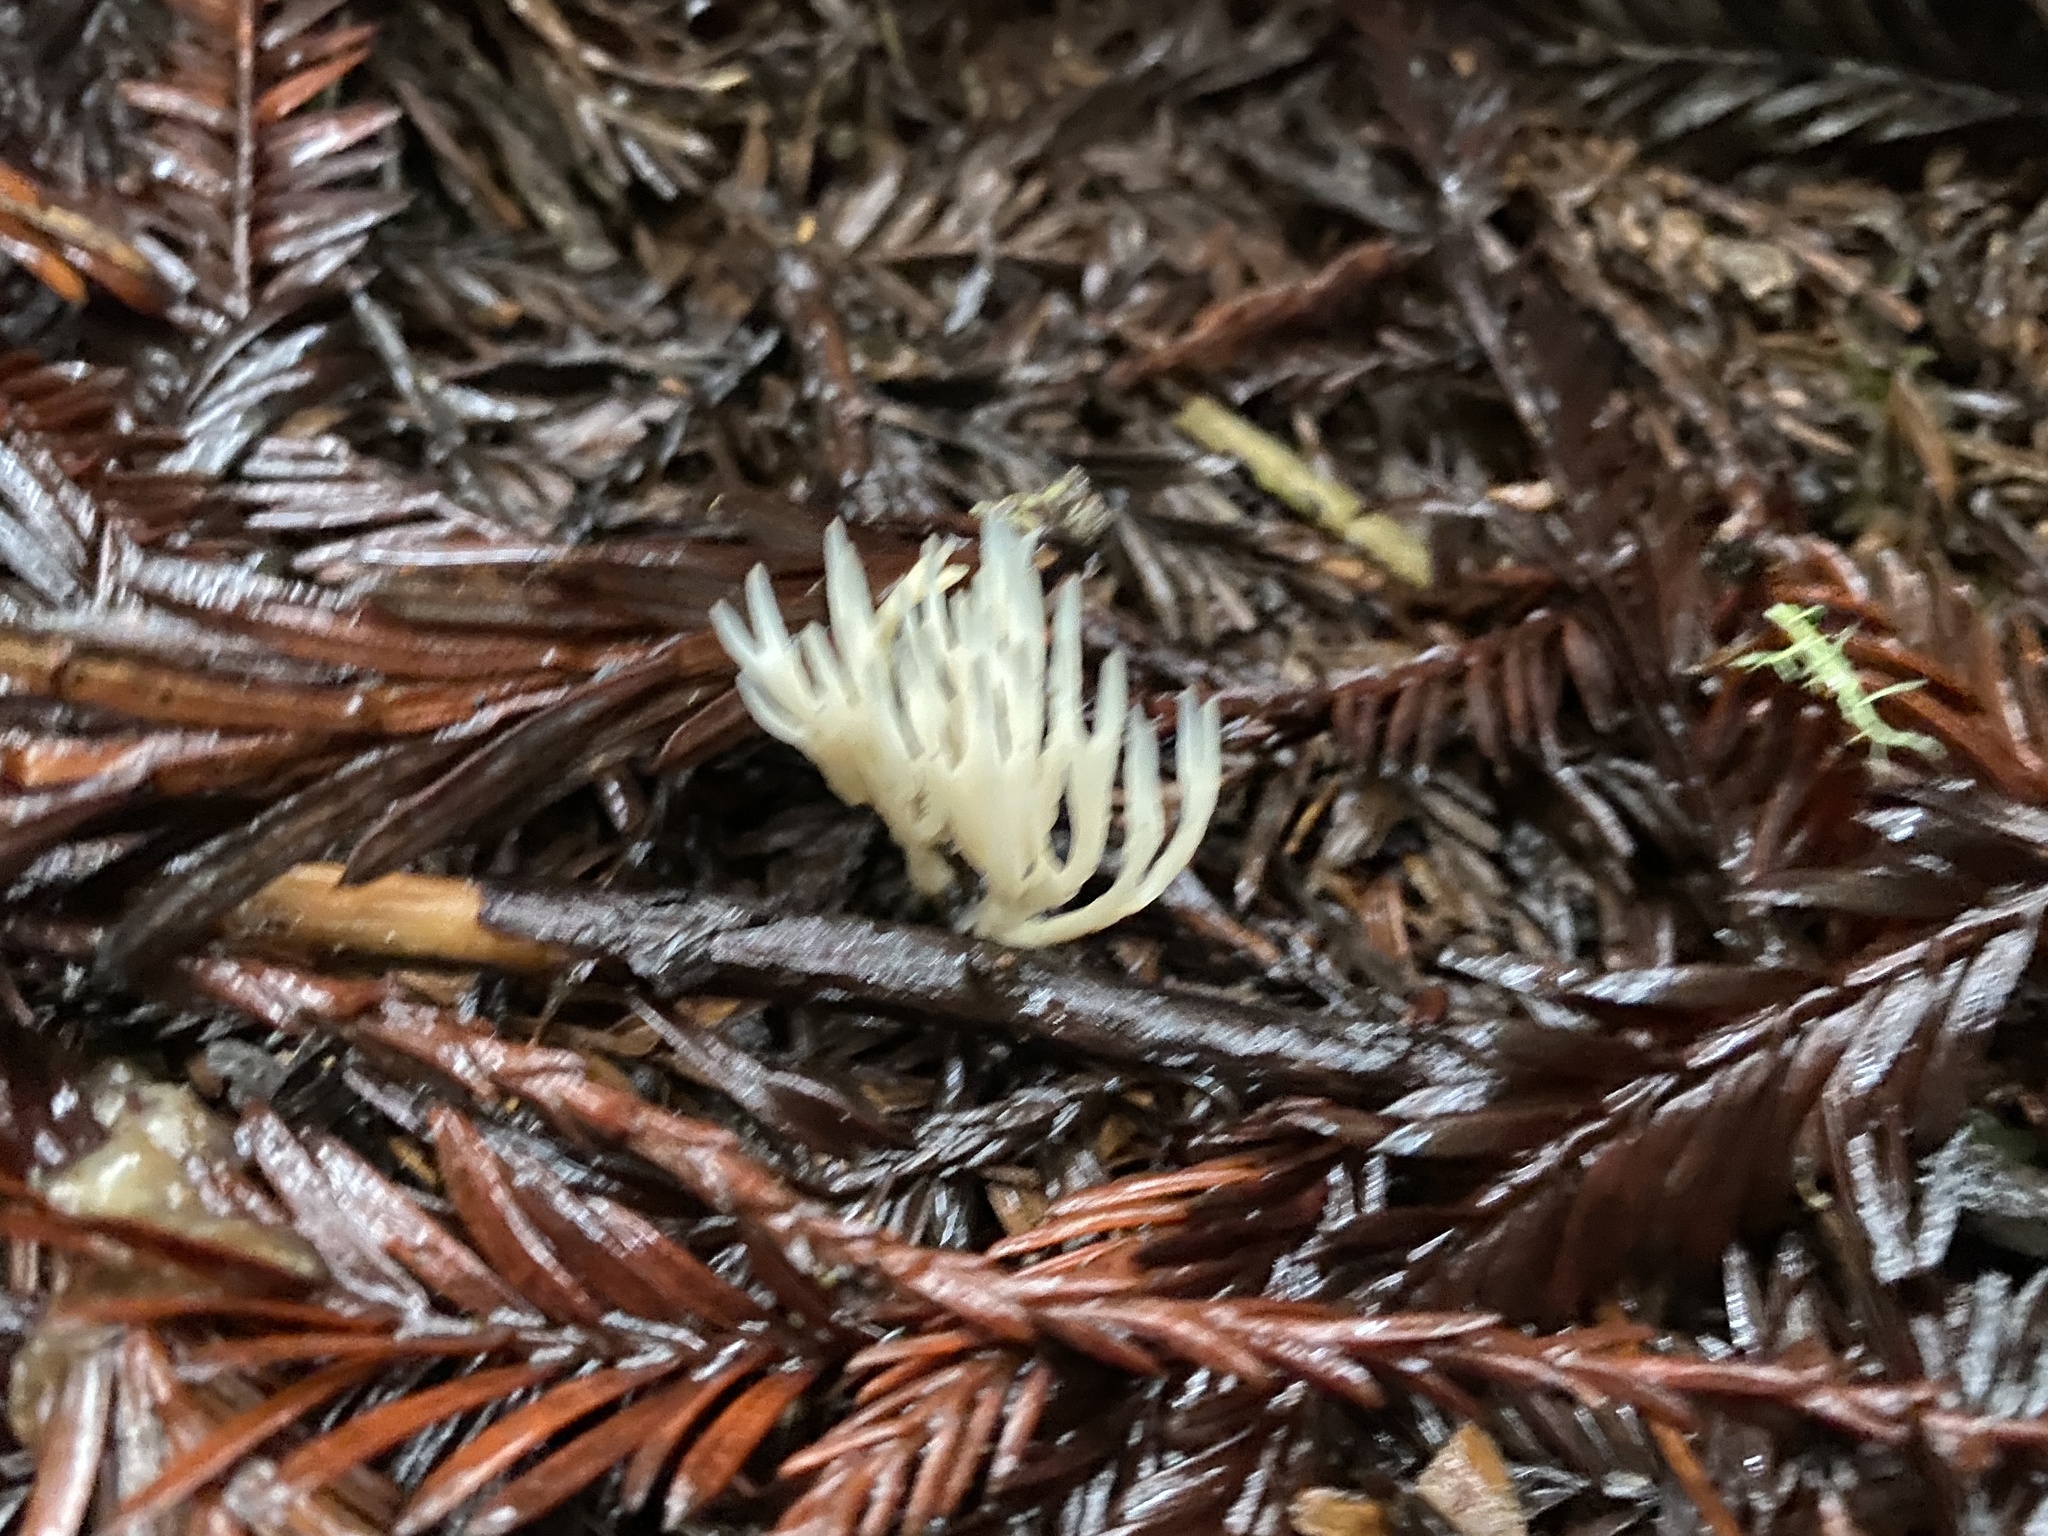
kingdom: Fungi
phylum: Basidiomycota
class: Agaricomycetes
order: Tremellodendropsidales
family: Tremellodendropsidaceae
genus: Tremellodendropsis
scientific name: Tremellodendropsis tuberosa
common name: Ashen coral
